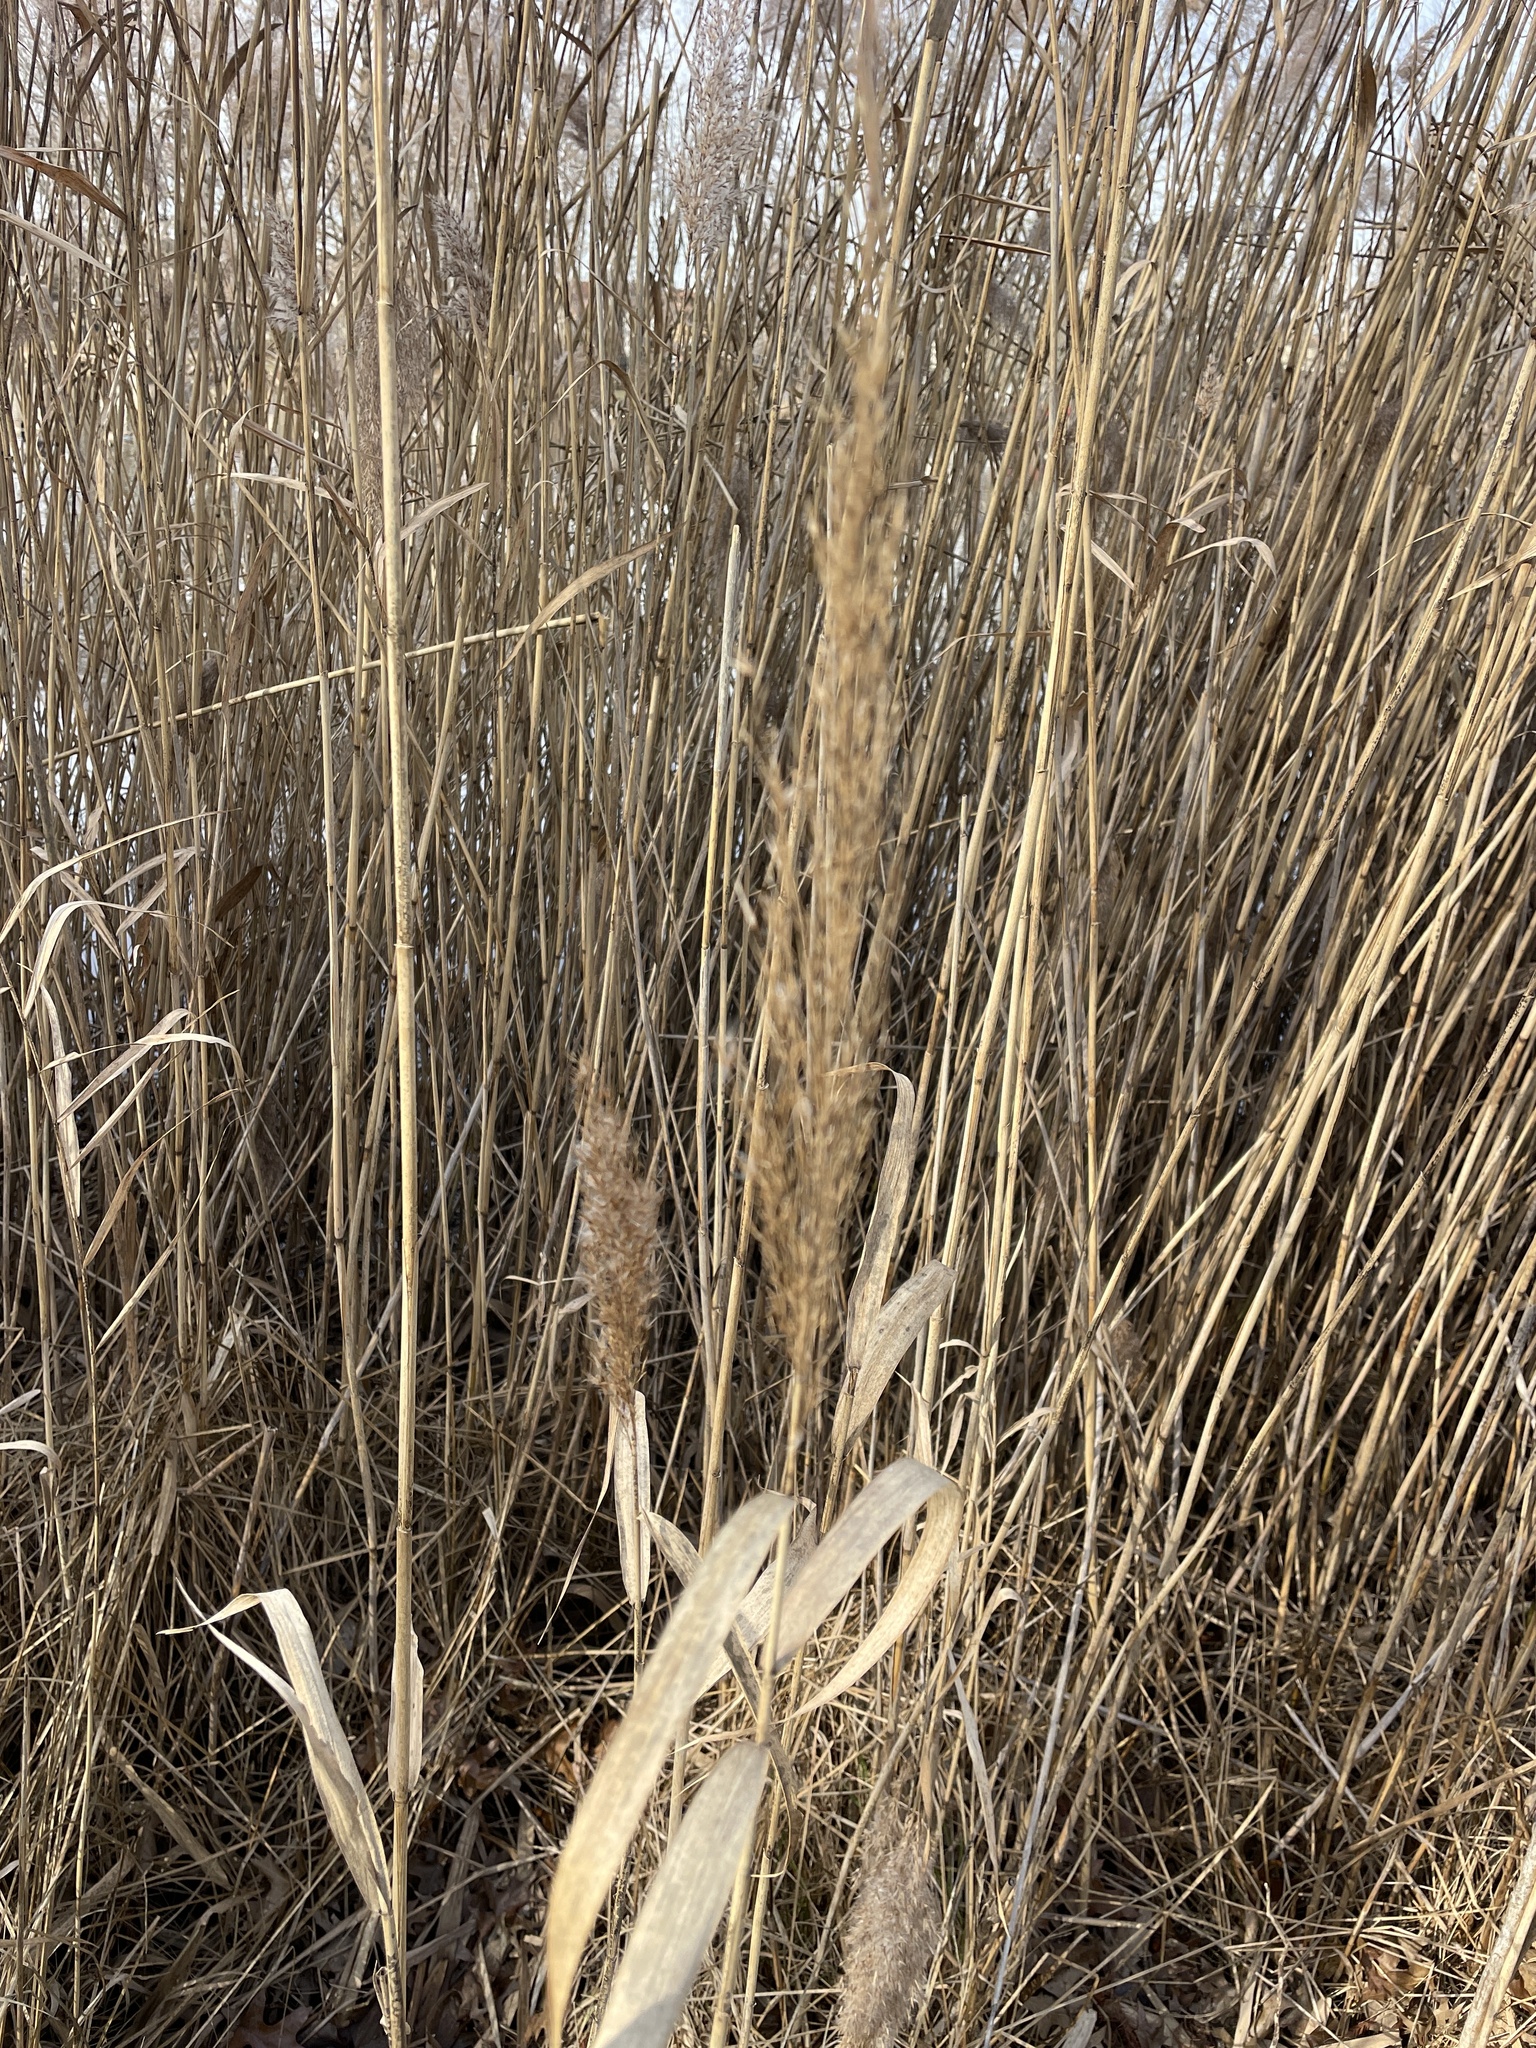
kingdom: Plantae
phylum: Tracheophyta
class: Liliopsida
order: Poales
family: Poaceae
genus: Phragmites
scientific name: Phragmites australis
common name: Common reed
